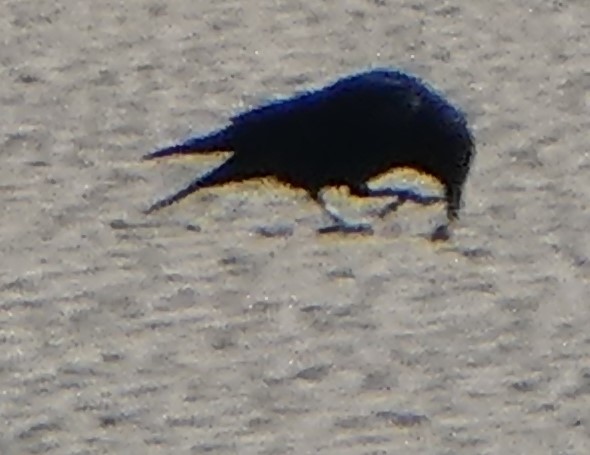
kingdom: Animalia
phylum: Chordata
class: Aves
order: Passeriformes
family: Corvidae
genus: Corvus
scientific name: Corvus corone
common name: Carrion crow
